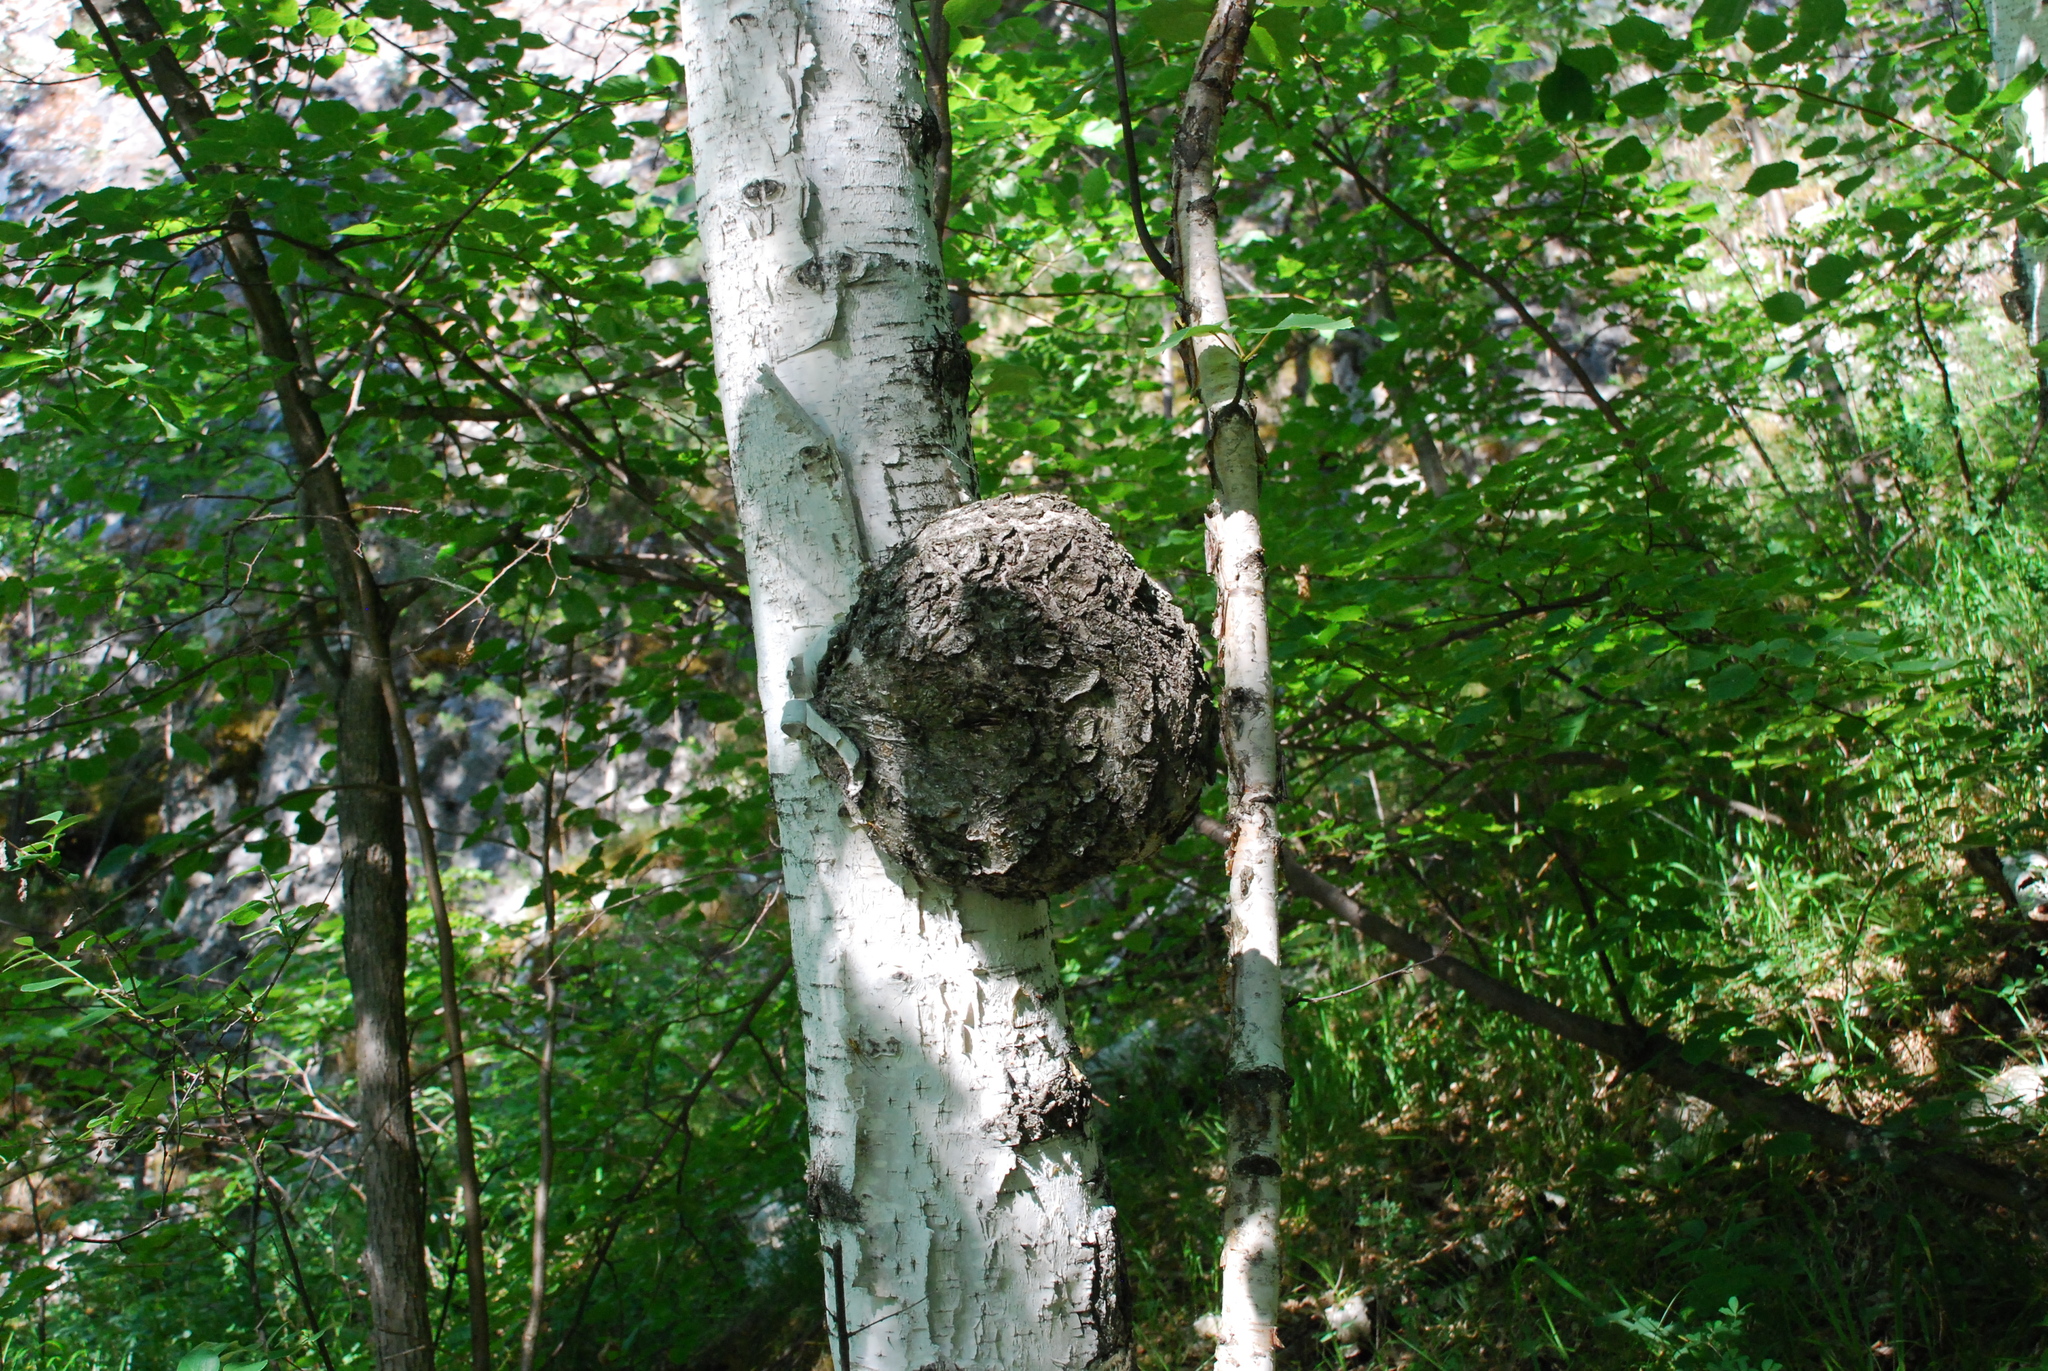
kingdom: Bacteria
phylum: Proteobacteria
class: Alphaproteobacteria
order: Rhizobiales
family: Rhizobiaceae
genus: Rhizobium
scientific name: Rhizobium Agrobacterium radiobacter
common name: Bacterial crown gall
